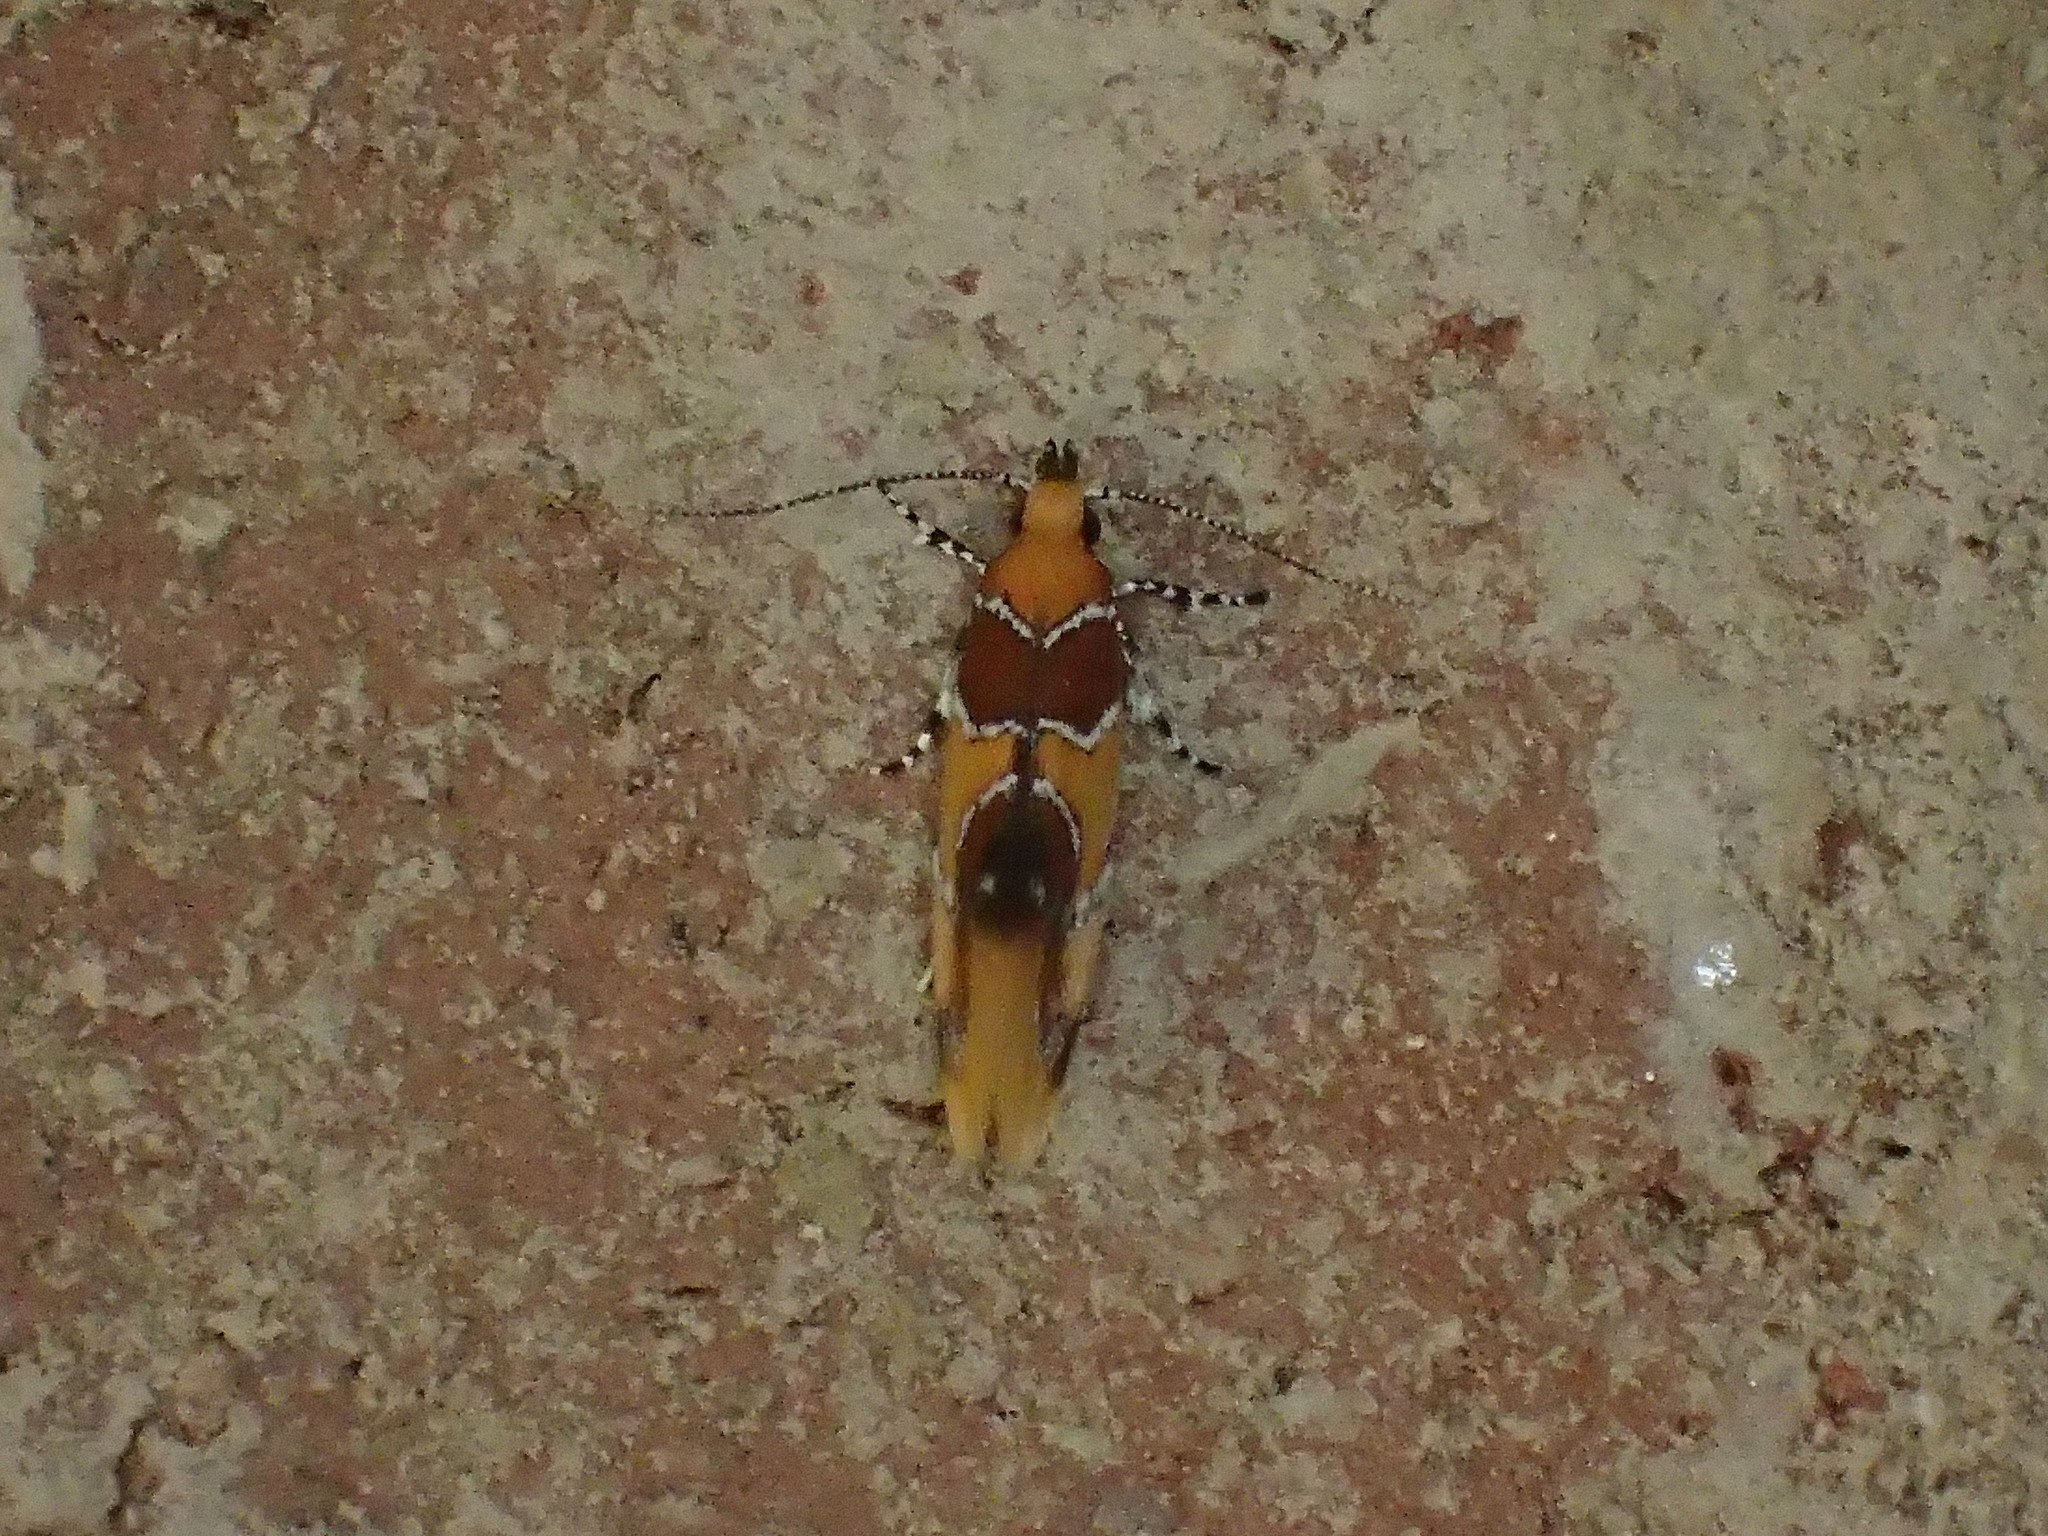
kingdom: Animalia
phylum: Arthropoda
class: Insecta
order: Lepidoptera
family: Oecophoridae
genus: Callima
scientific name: Callima argenticinctella
